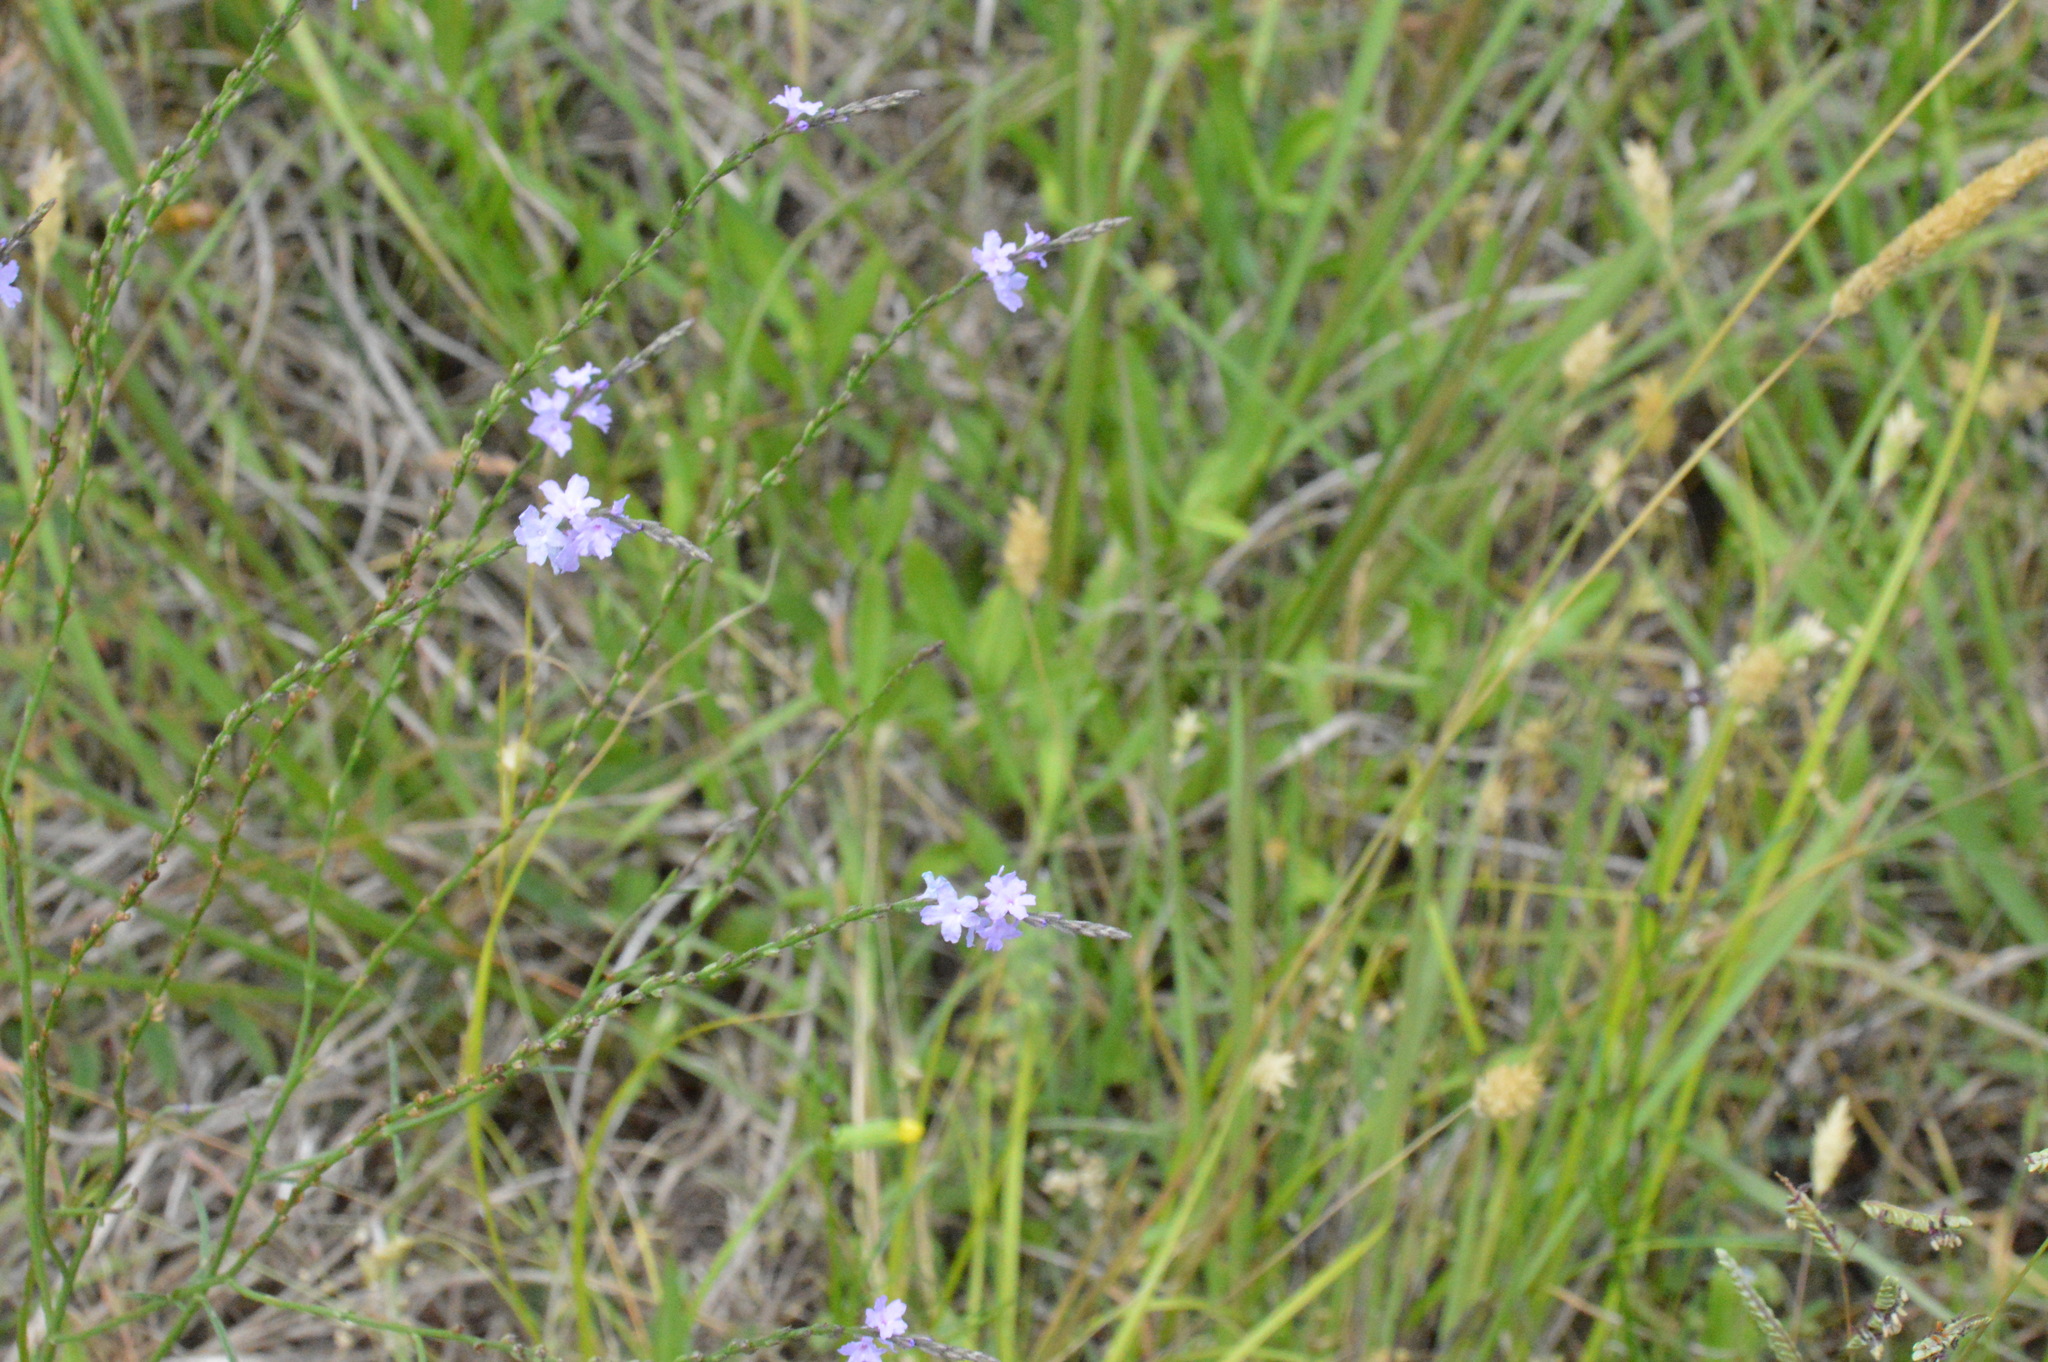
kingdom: Plantae
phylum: Tracheophyta
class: Magnoliopsida
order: Lamiales
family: Verbenaceae
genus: Verbena
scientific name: Verbena halei
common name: Texas vervain
